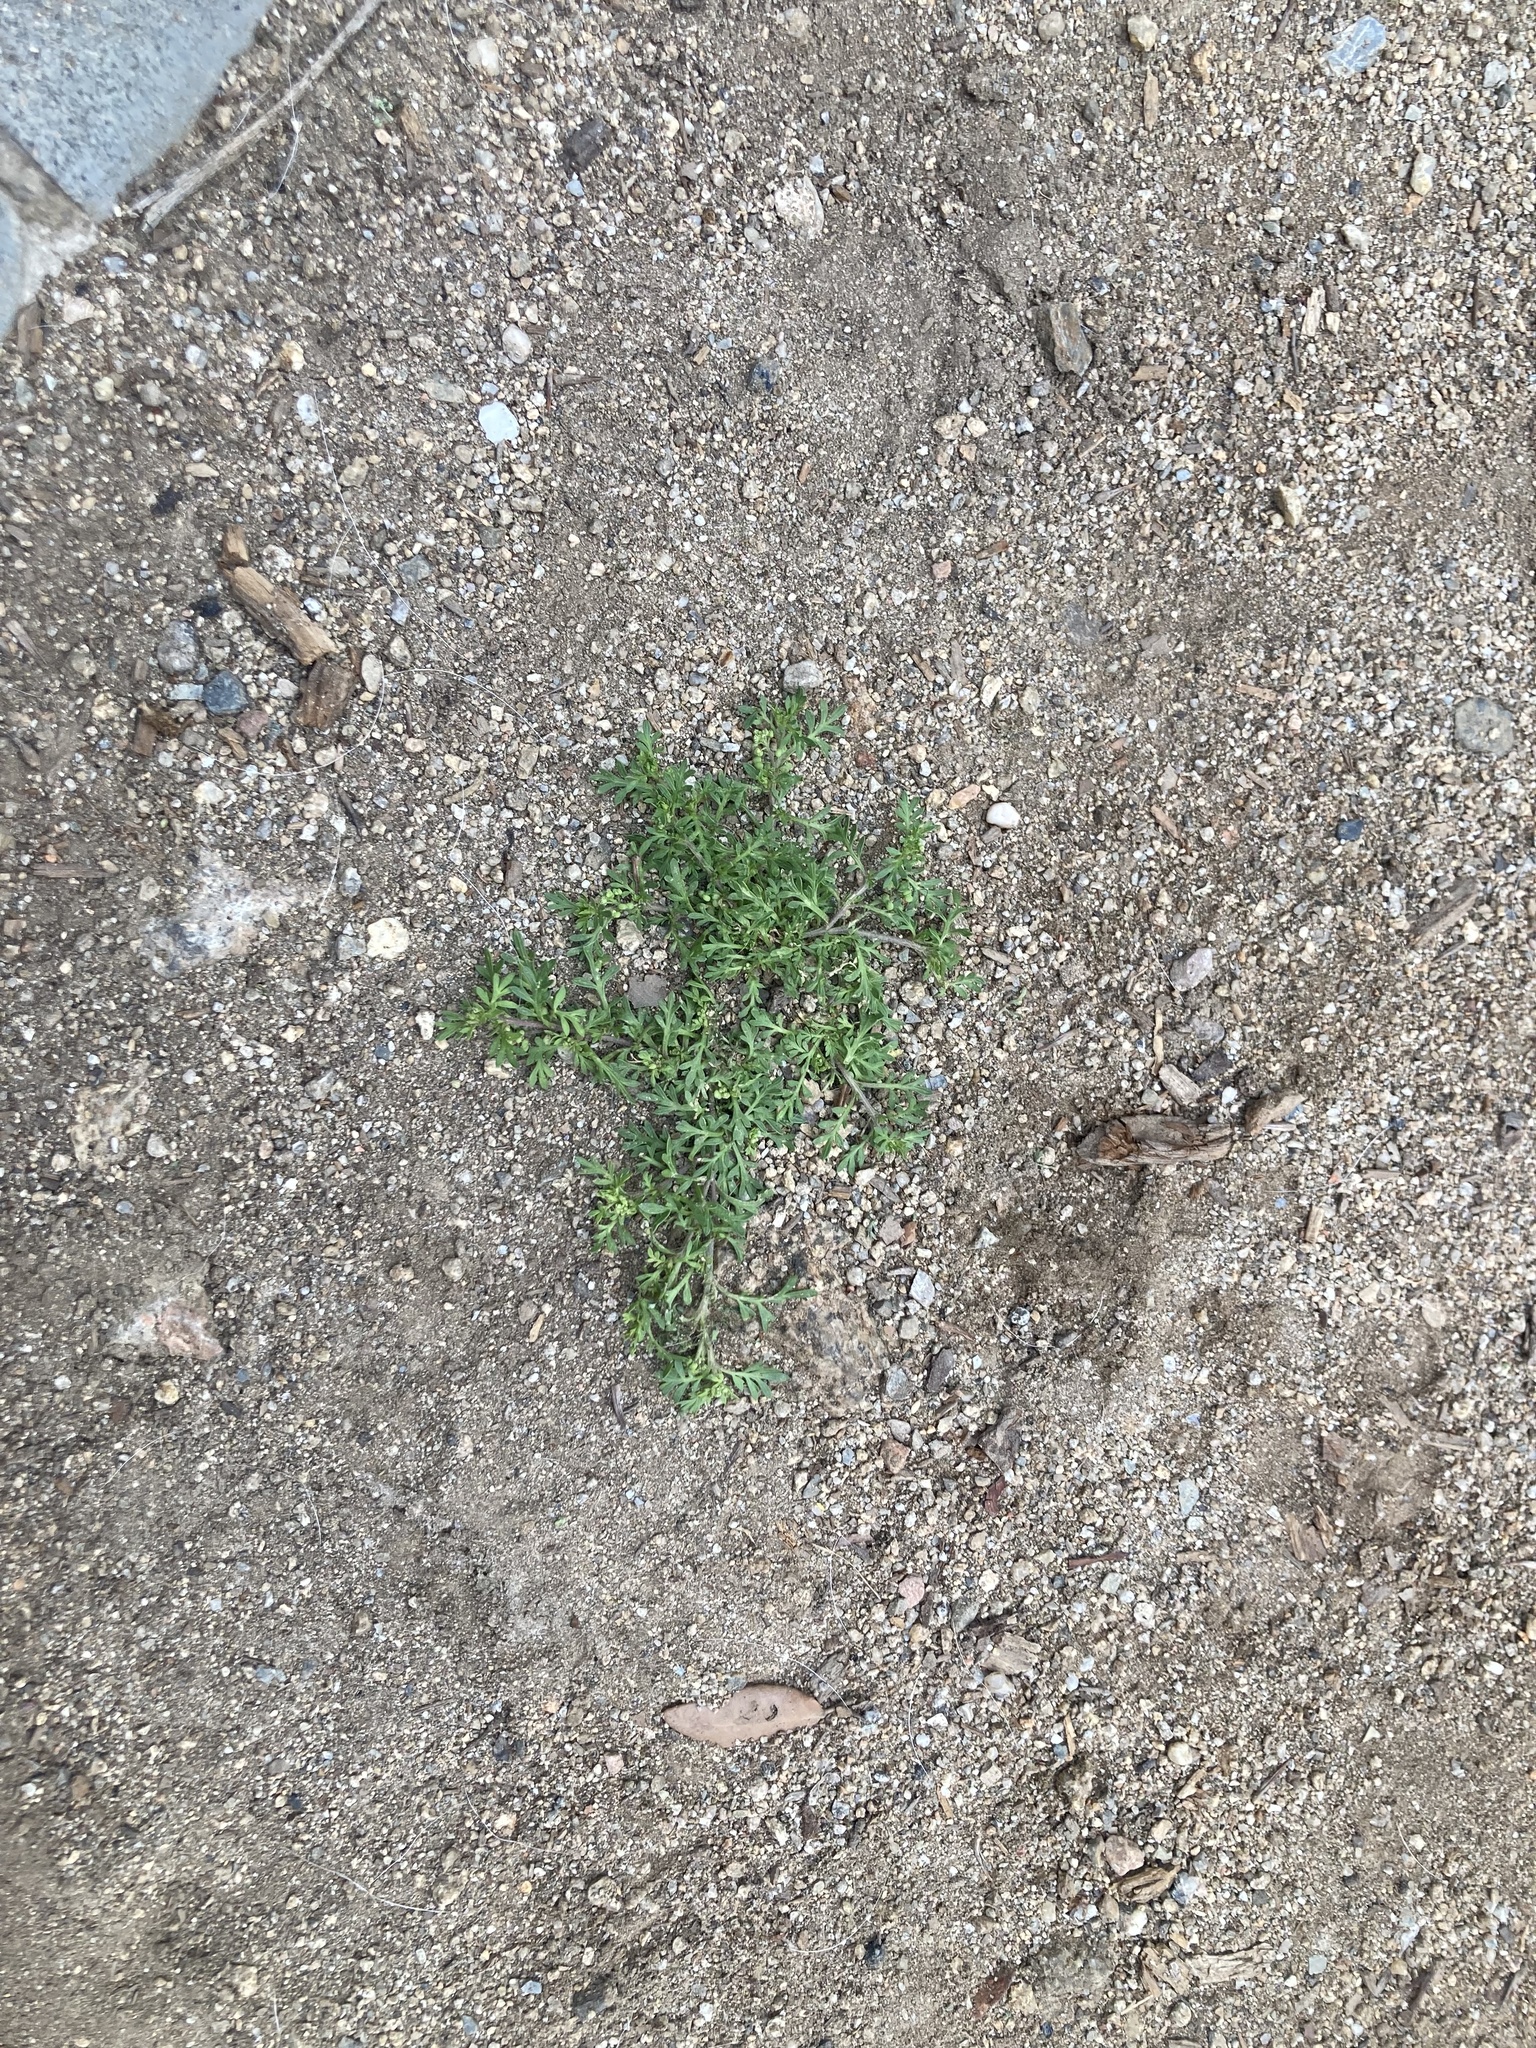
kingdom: Plantae
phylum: Tracheophyta
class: Magnoliopsida
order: Brassicales
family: Brassicaceae
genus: Lepidium
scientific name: Lepidium didymum
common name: Lesser swinecress
